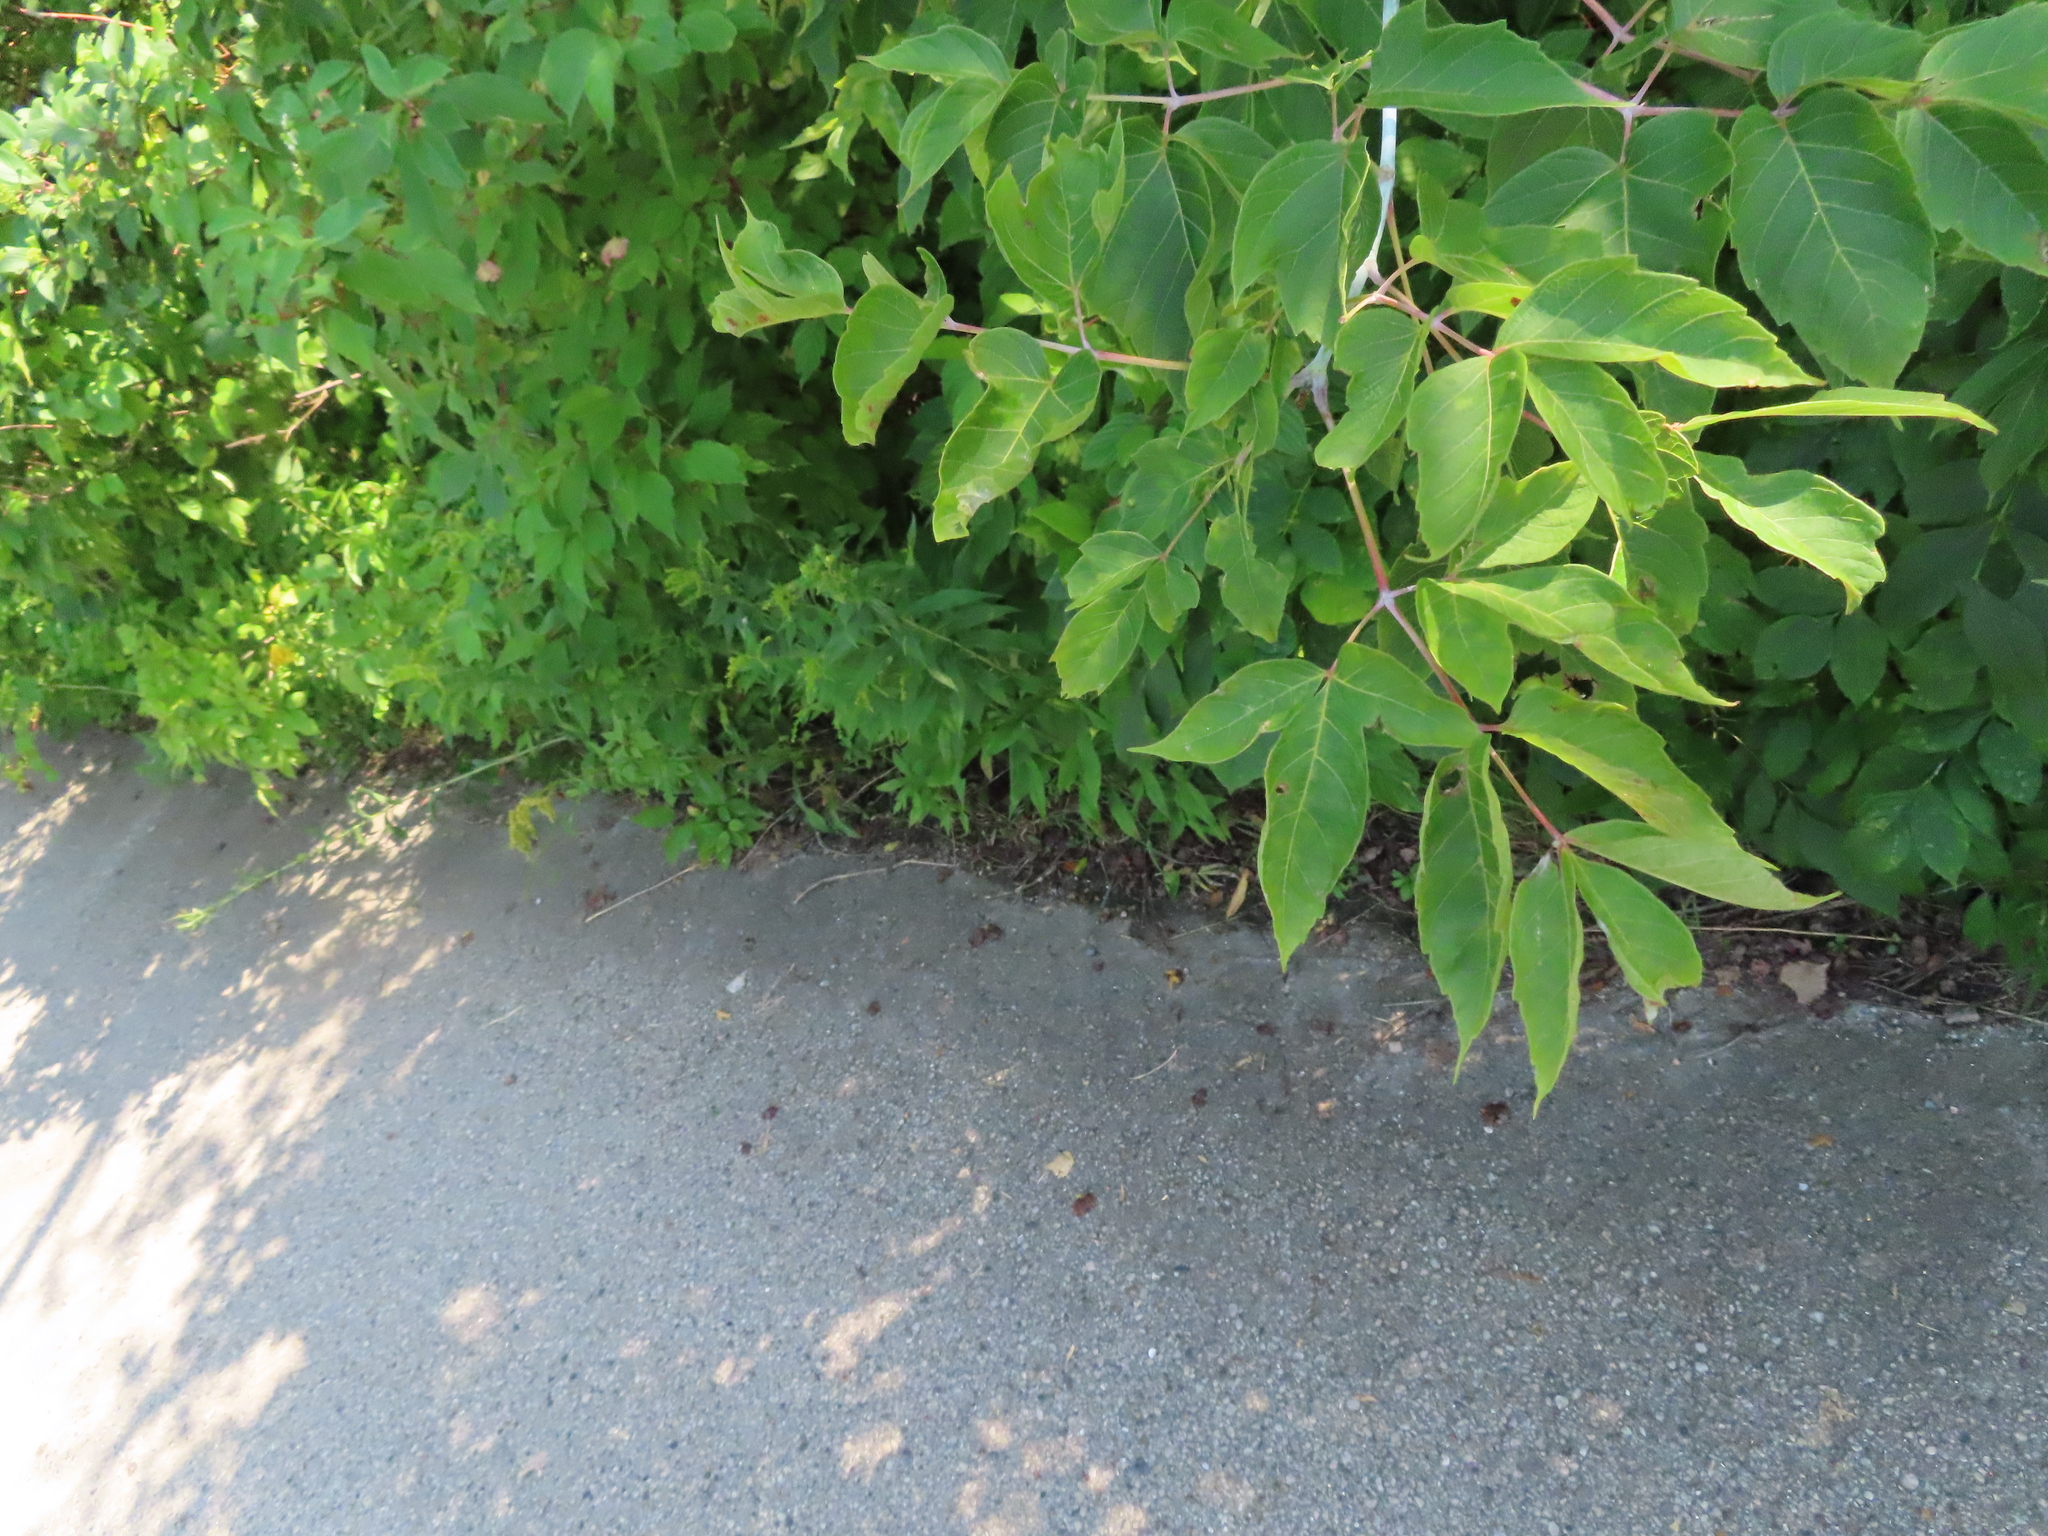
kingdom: Plantae
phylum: Tracheophyta
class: Magnoliopsida
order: Sapindales
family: Sapindaceae
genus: Acer
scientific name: Acer negundo
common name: Ashleaf maple
